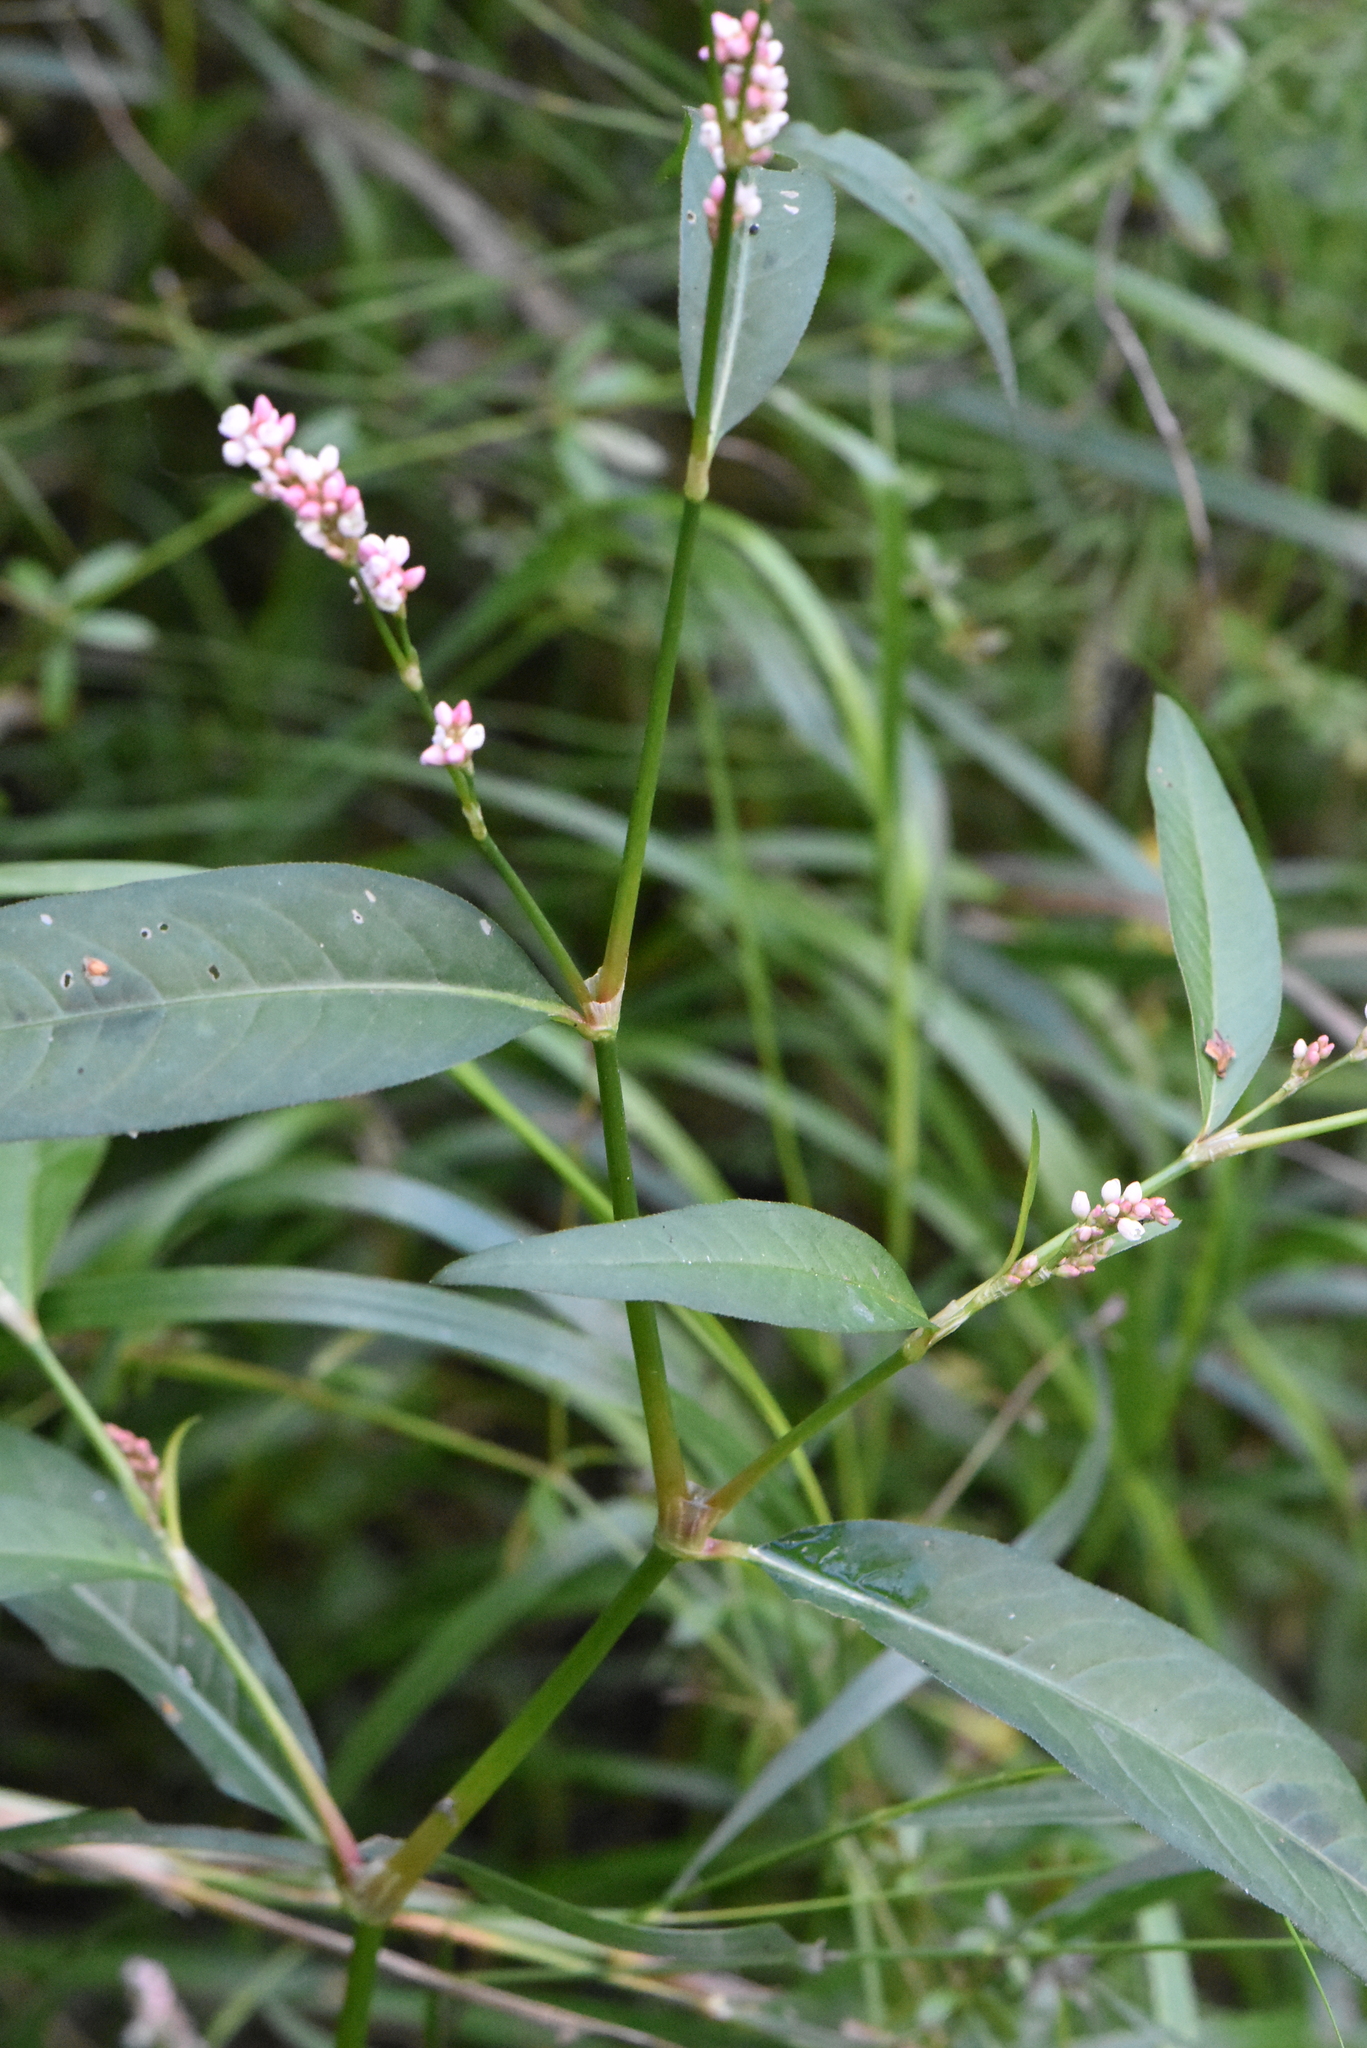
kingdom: Plantae
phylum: Tracheophyta
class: Magnoliopsida
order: Caryophyllales
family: Polygonaceae
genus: Persicaria
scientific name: Persicaria maculosa
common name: Redshank
